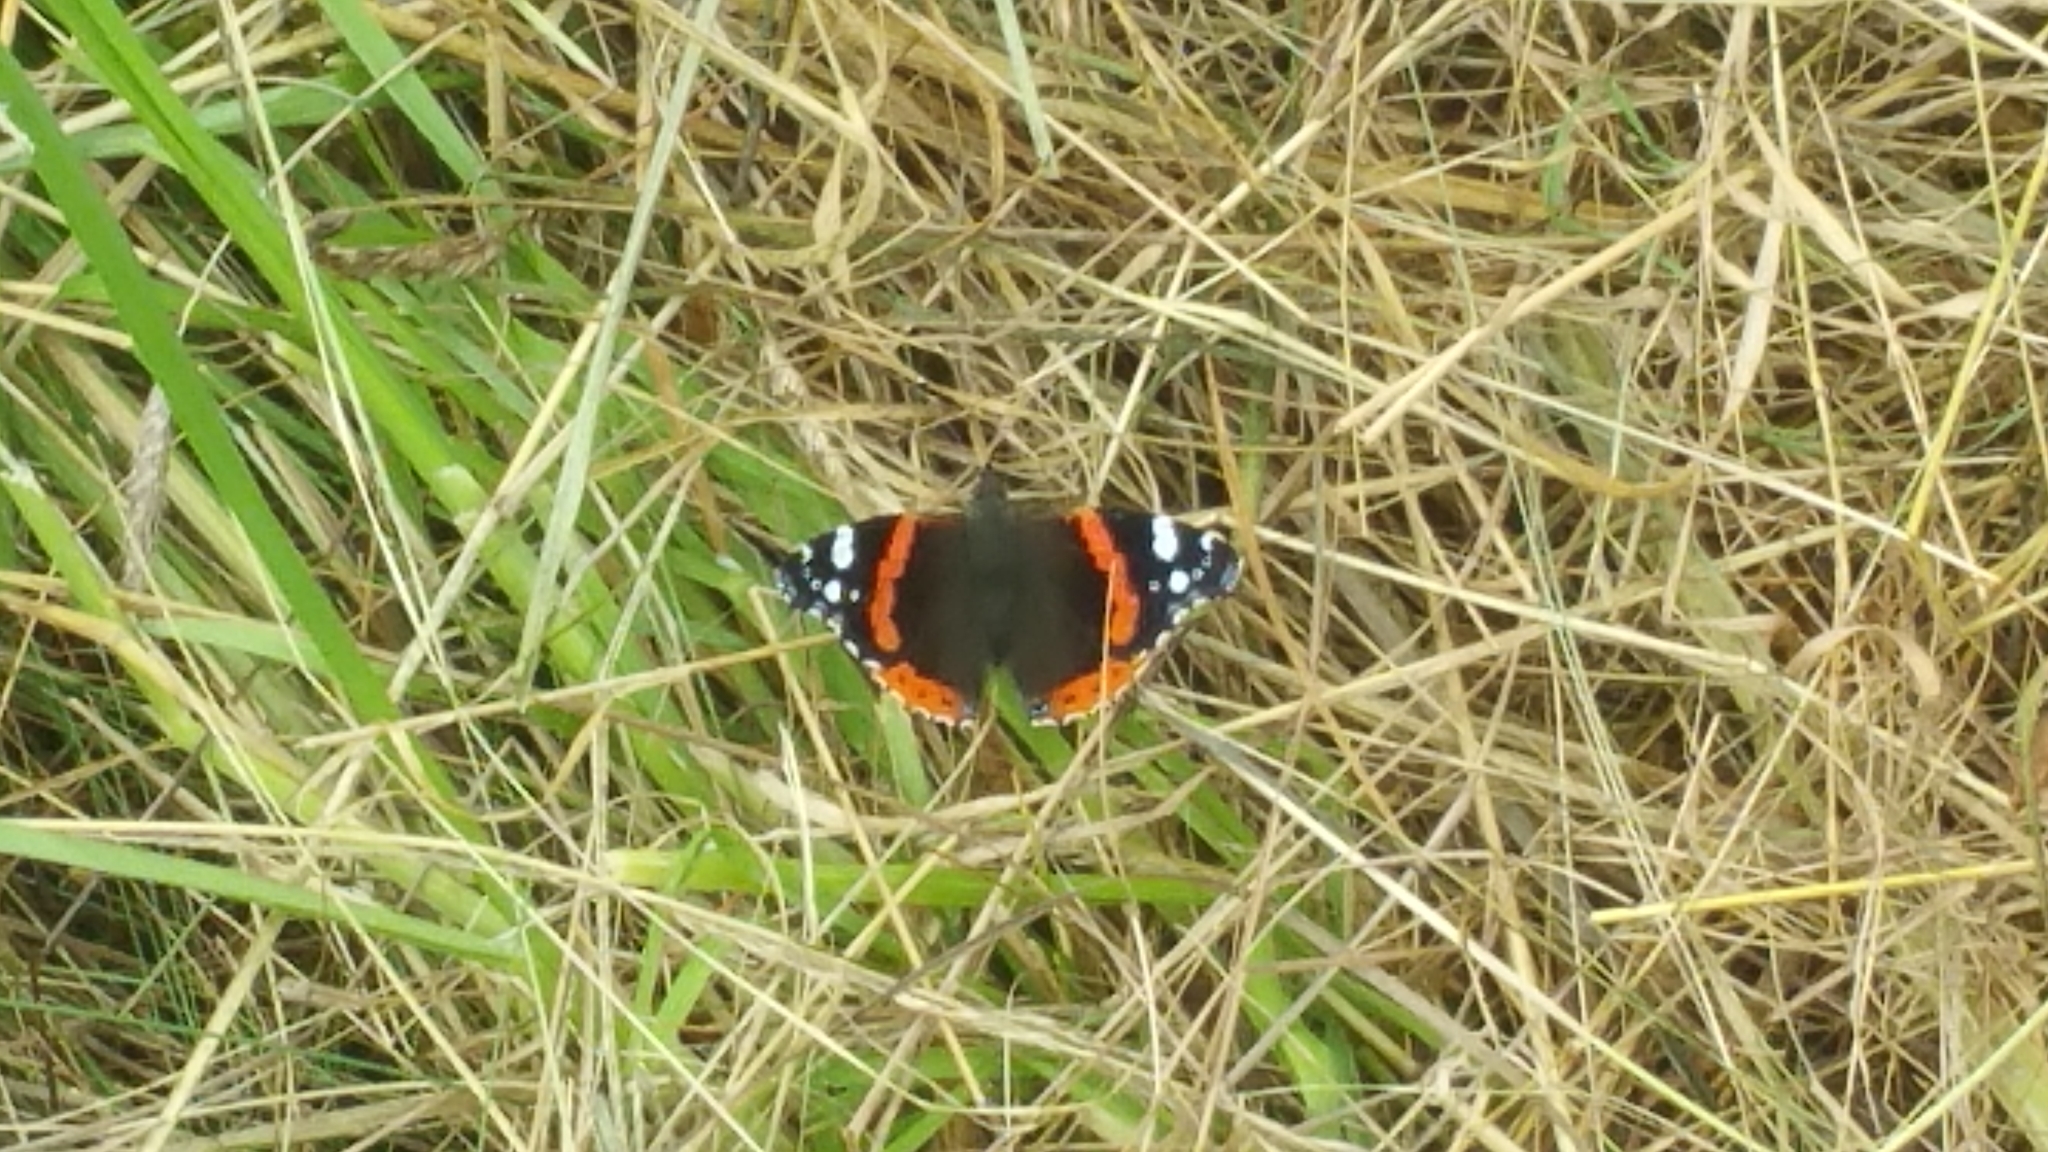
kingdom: Animalia
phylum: Arthropoda
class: Insecta
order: Lepidoptera
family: Nymphalidae
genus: Vanessa
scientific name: Vanessa atalanta
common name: Red admiral
